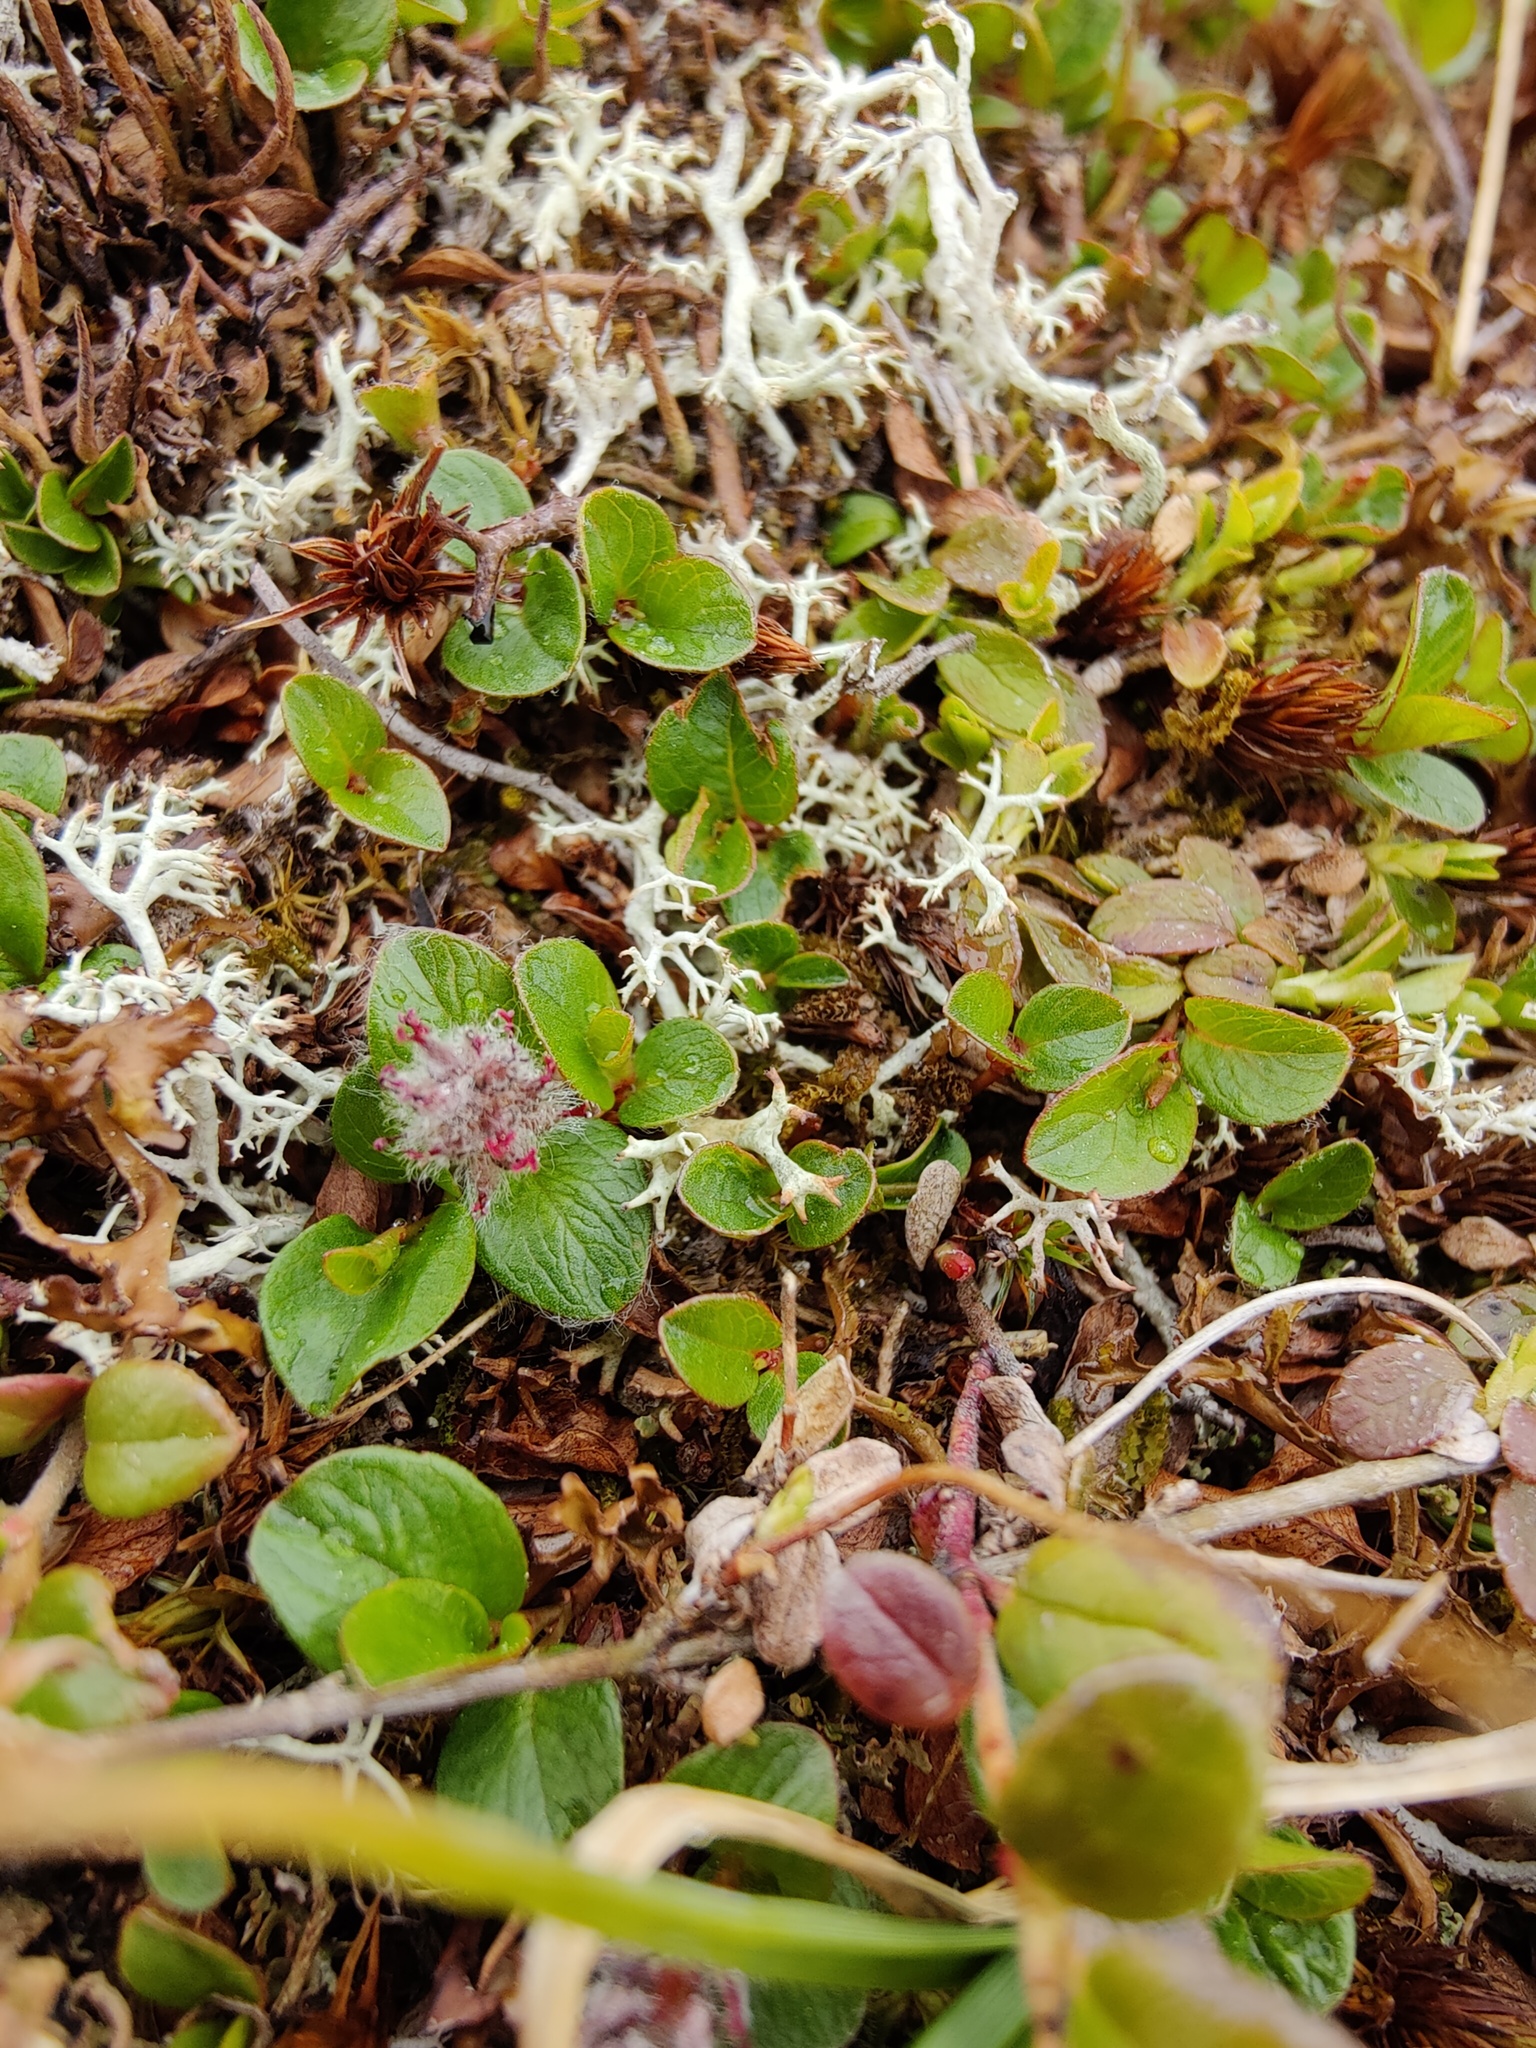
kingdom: Plantae
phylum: Tracheophyta
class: Magnoliopsida
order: Malpighiales
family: Salicaceae
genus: Salix
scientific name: Salix polaris
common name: Polar willow
